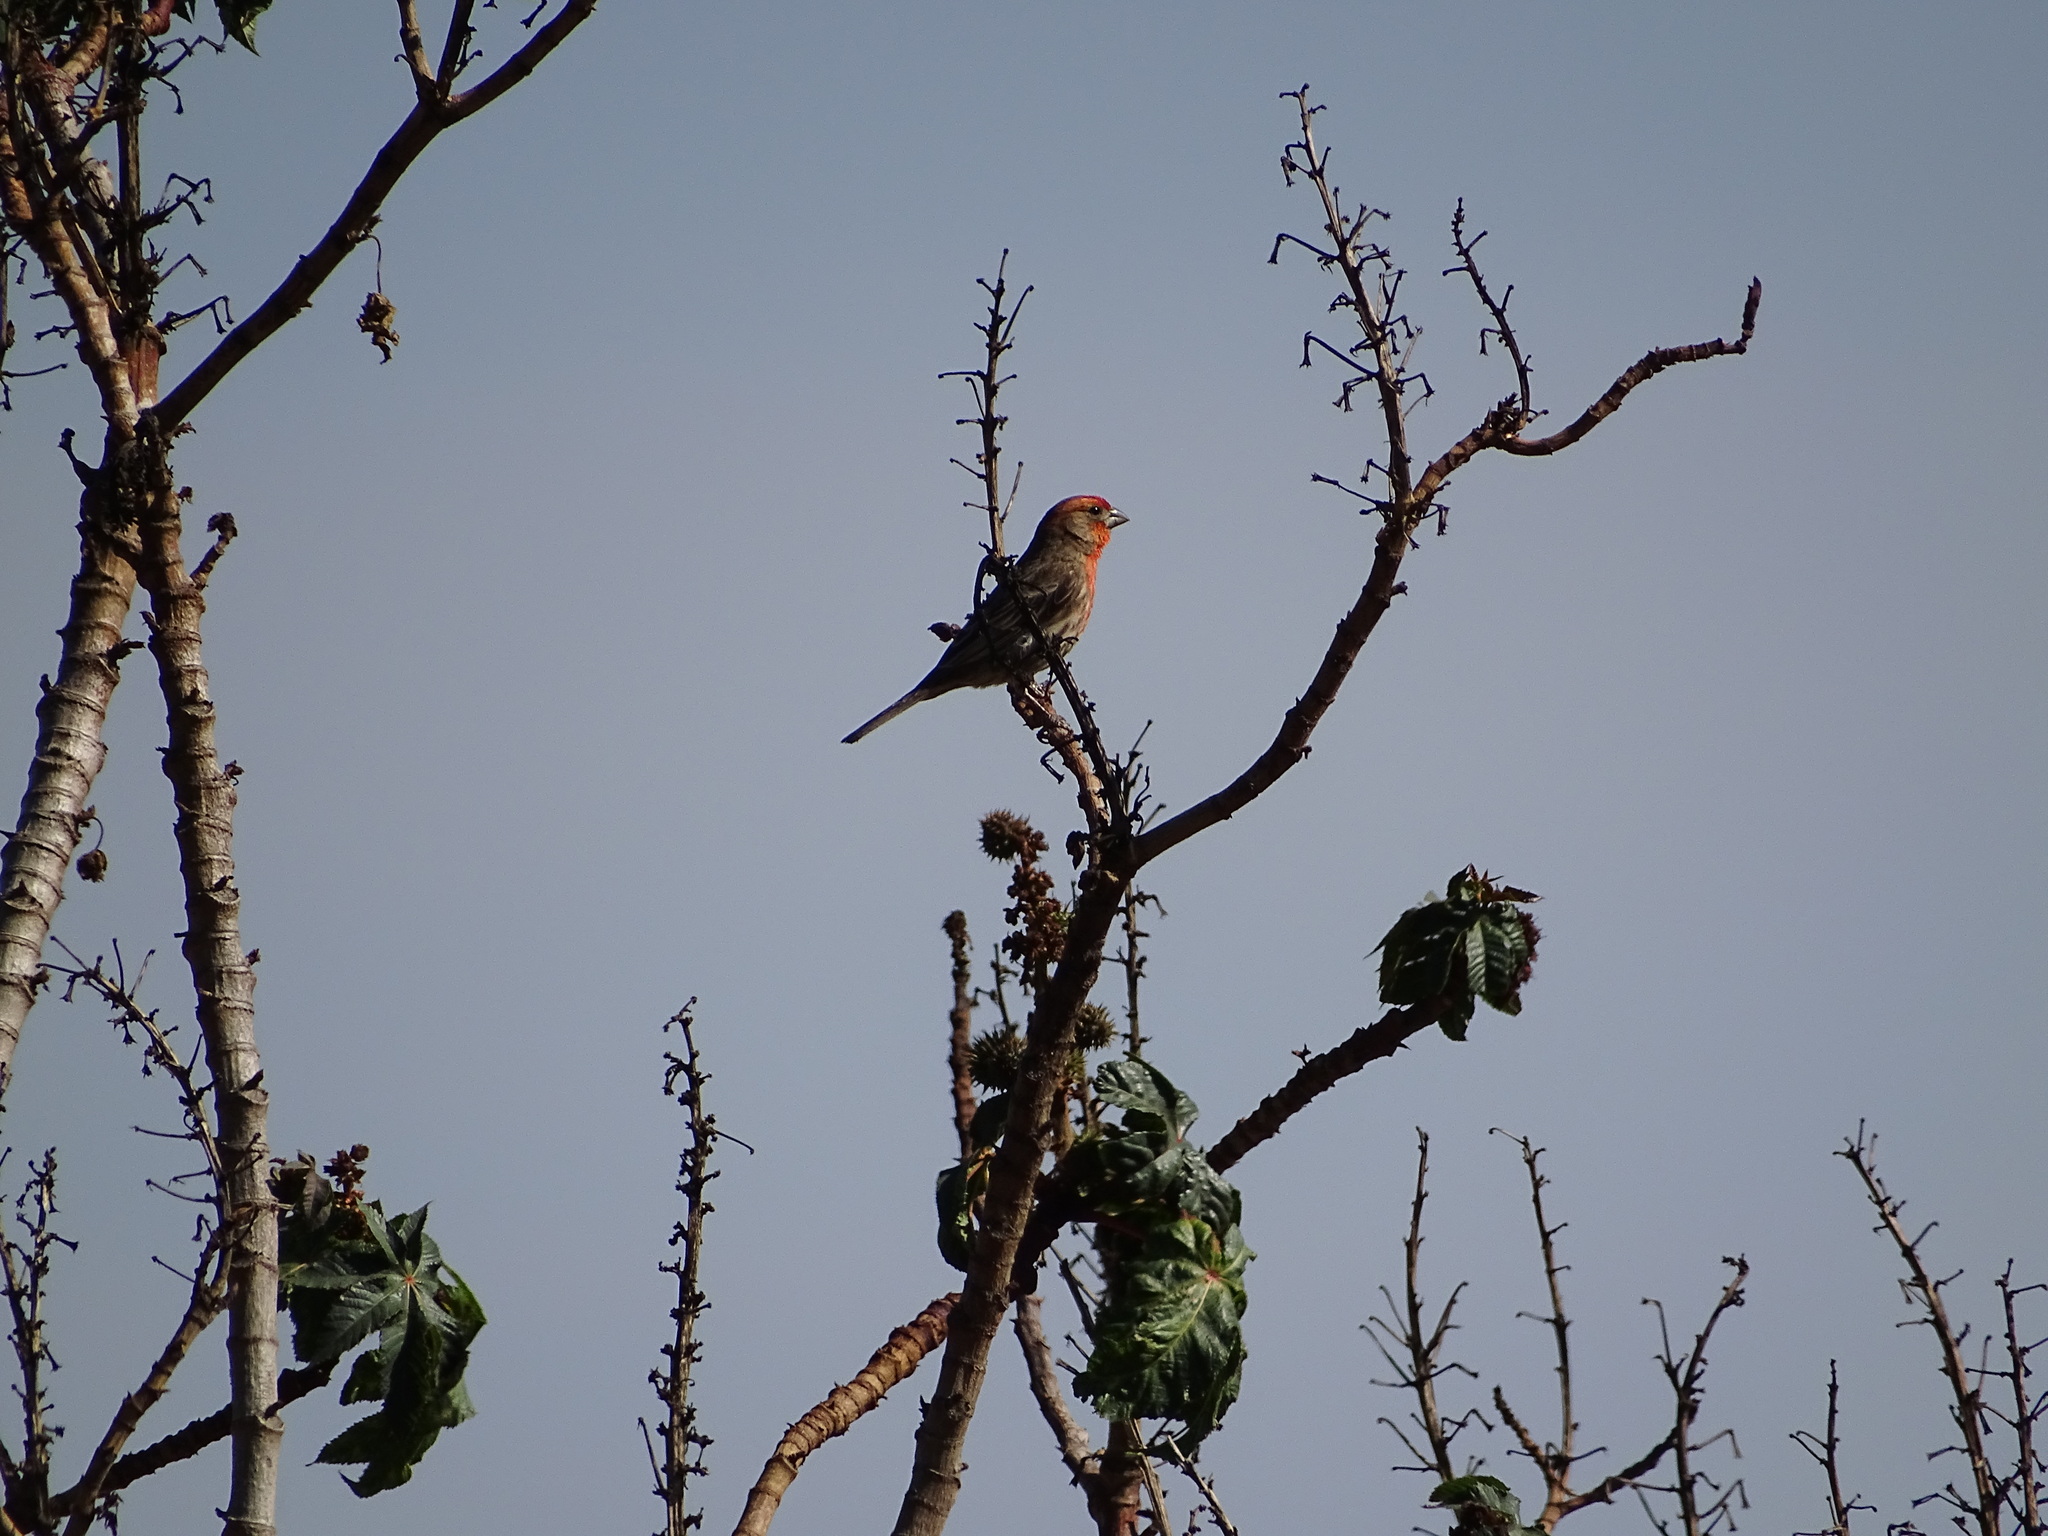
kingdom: Animalia
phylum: Chordata
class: Aves
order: Passeriformes
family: Fringillidae
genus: Haemorhous
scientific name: Haemorhous mexicanus
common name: House finch
